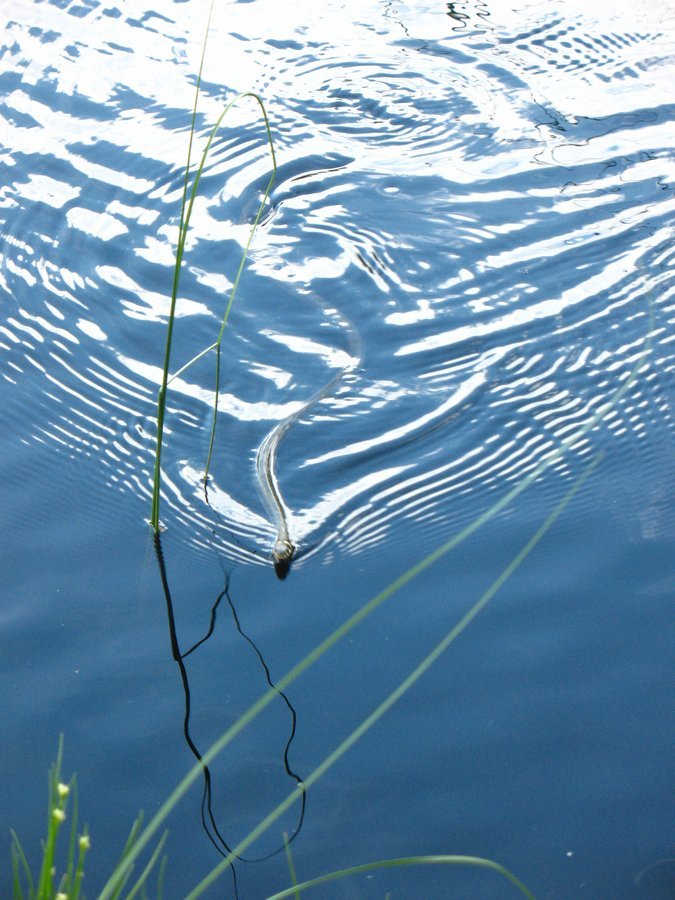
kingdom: Animalia
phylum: Chordata
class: Squamata
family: Colubridae
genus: Natrix
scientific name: Natrix natrix
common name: Grass snake
